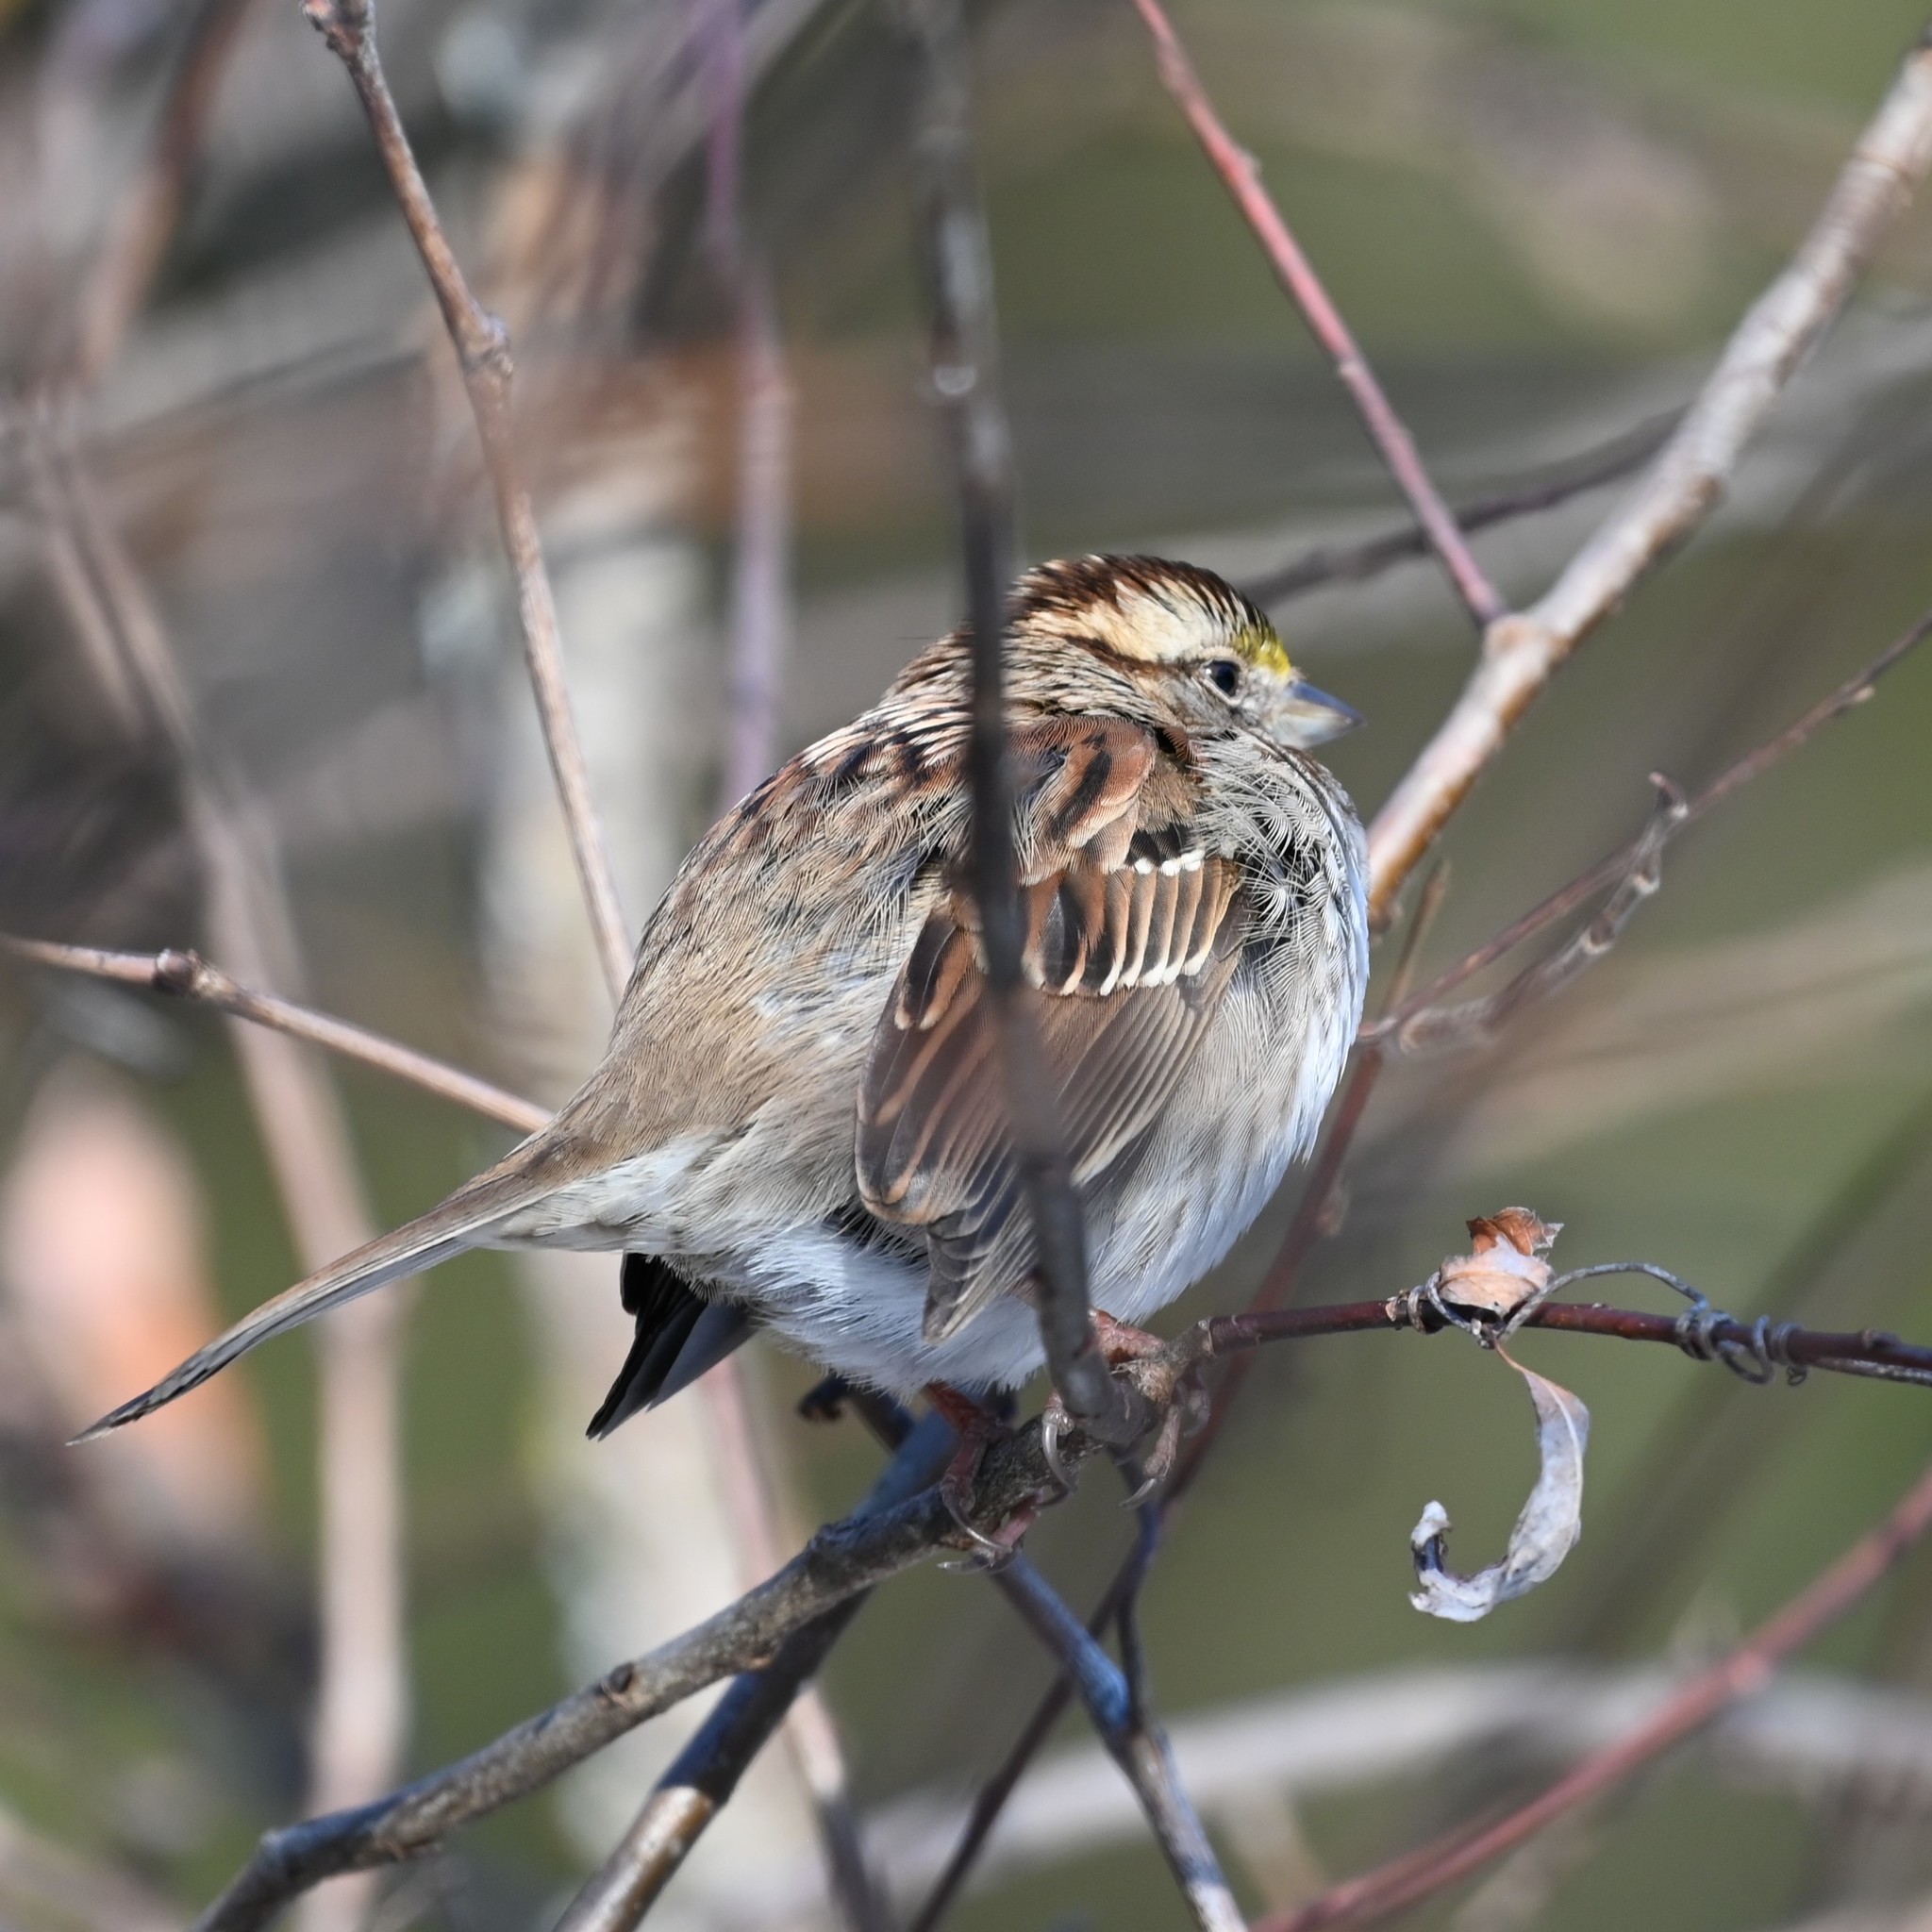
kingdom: Animalia
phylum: Chordata
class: Aves
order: Passeriformes
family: Passerellidae
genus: Zonotrichia
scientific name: Zonotrichia albicollis
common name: White-throated sparrow
